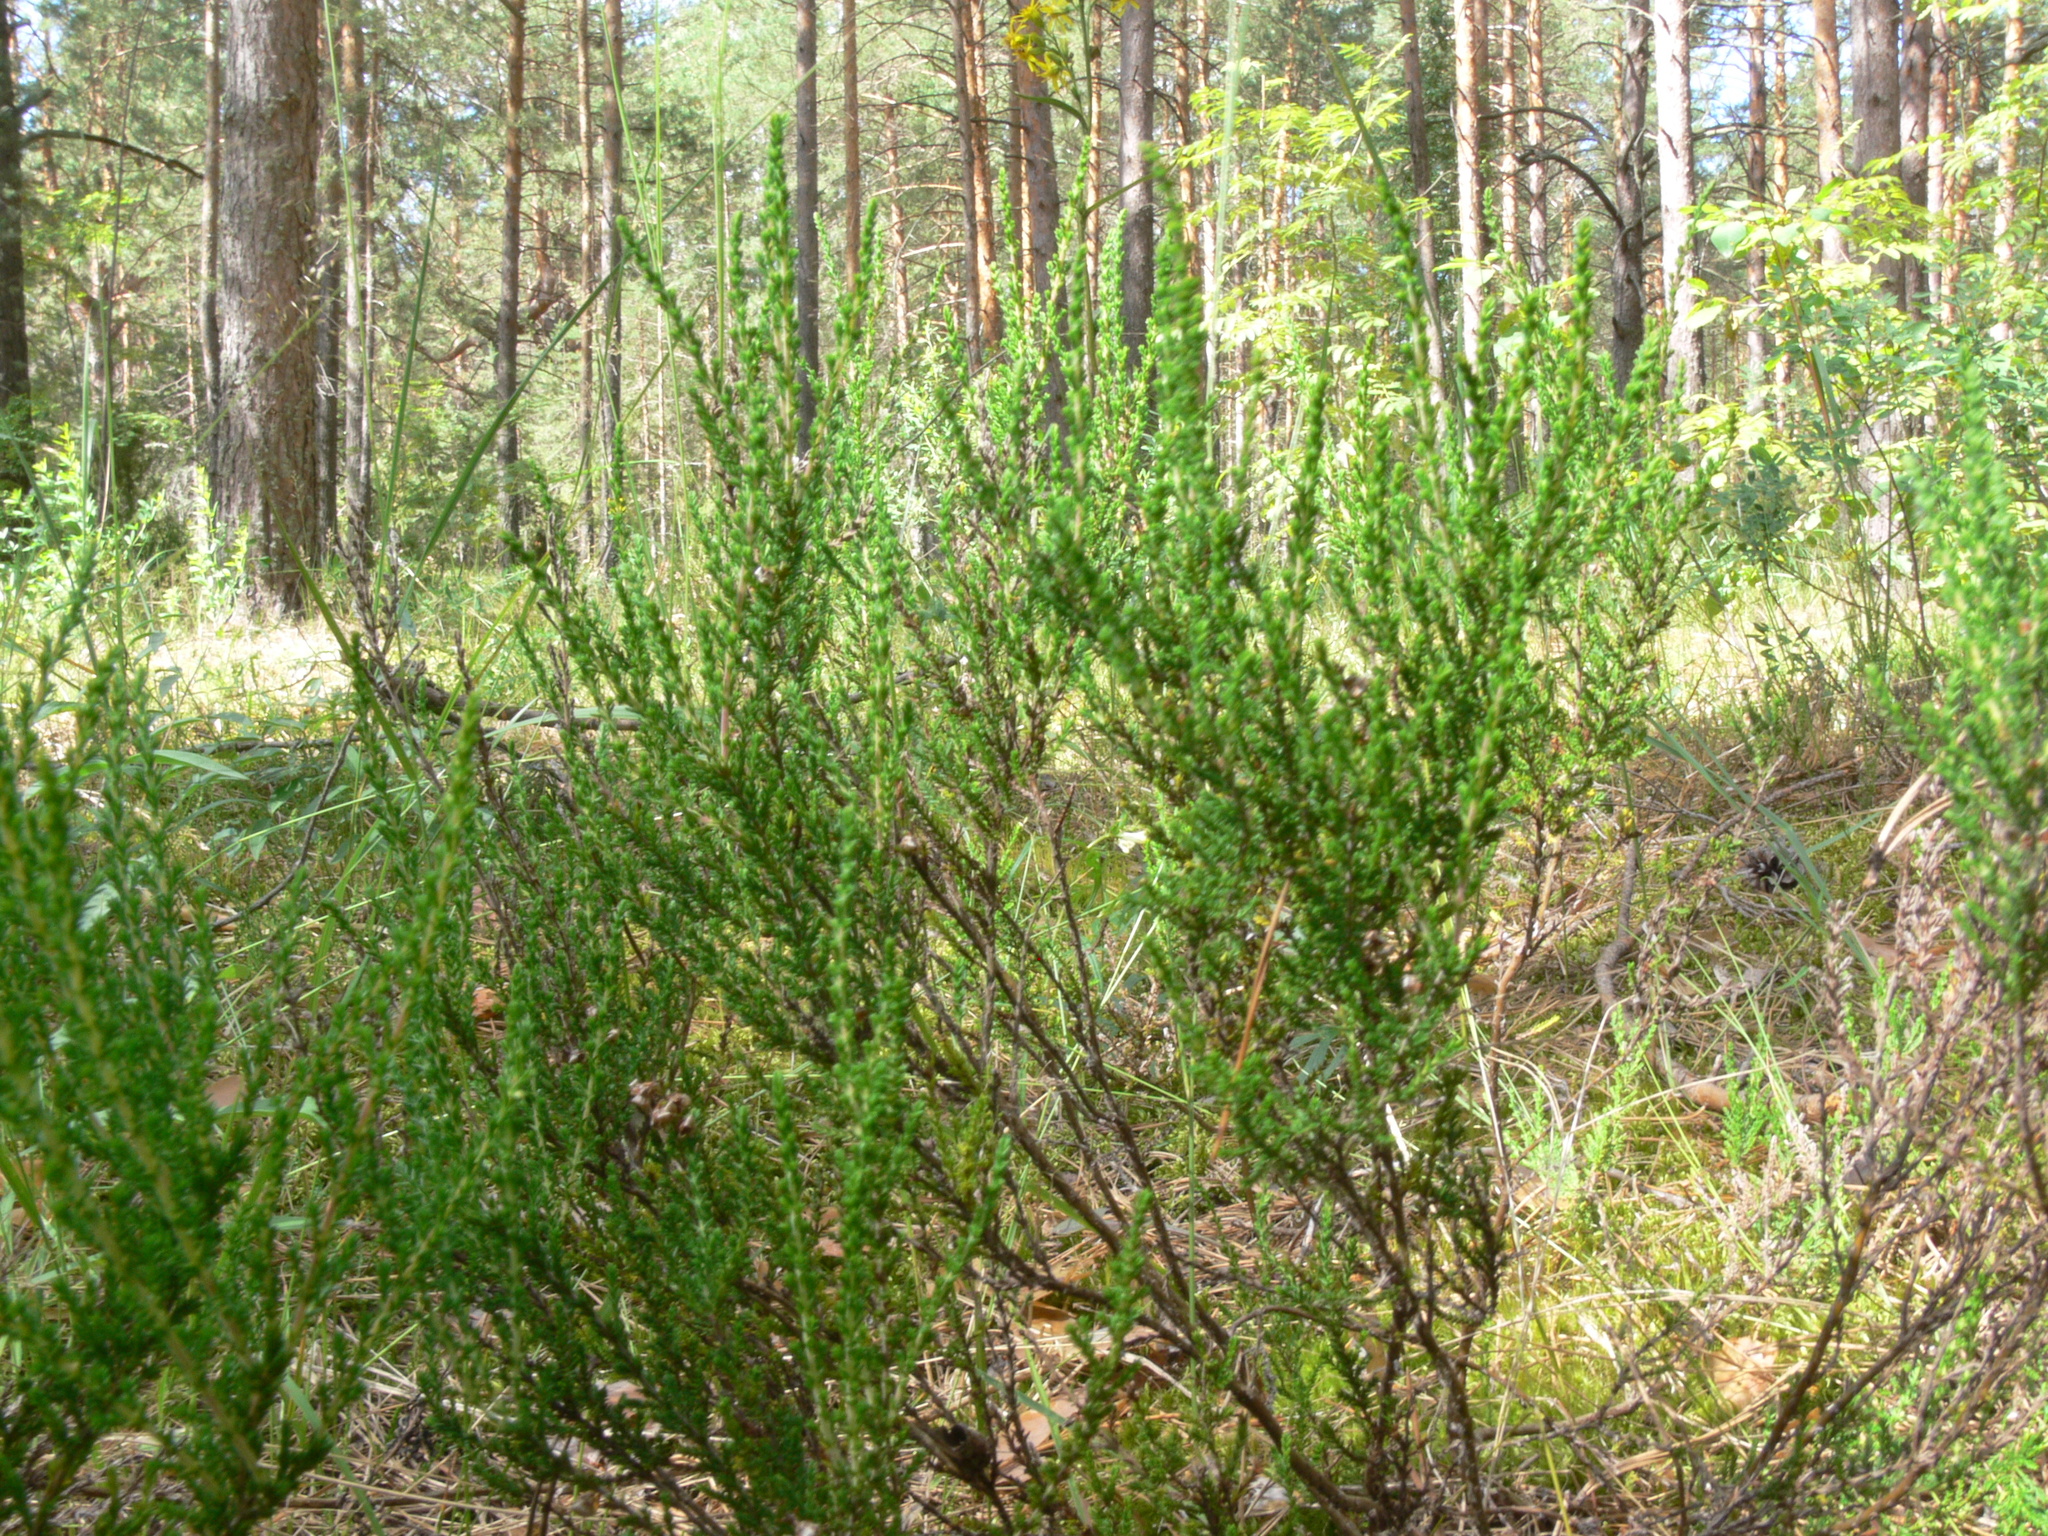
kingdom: Plantae
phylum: Tracheophyta
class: Magnoliopsida
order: Ericales
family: Ericaceae
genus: Calluna
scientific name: Calluna vulgaris
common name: Heather
